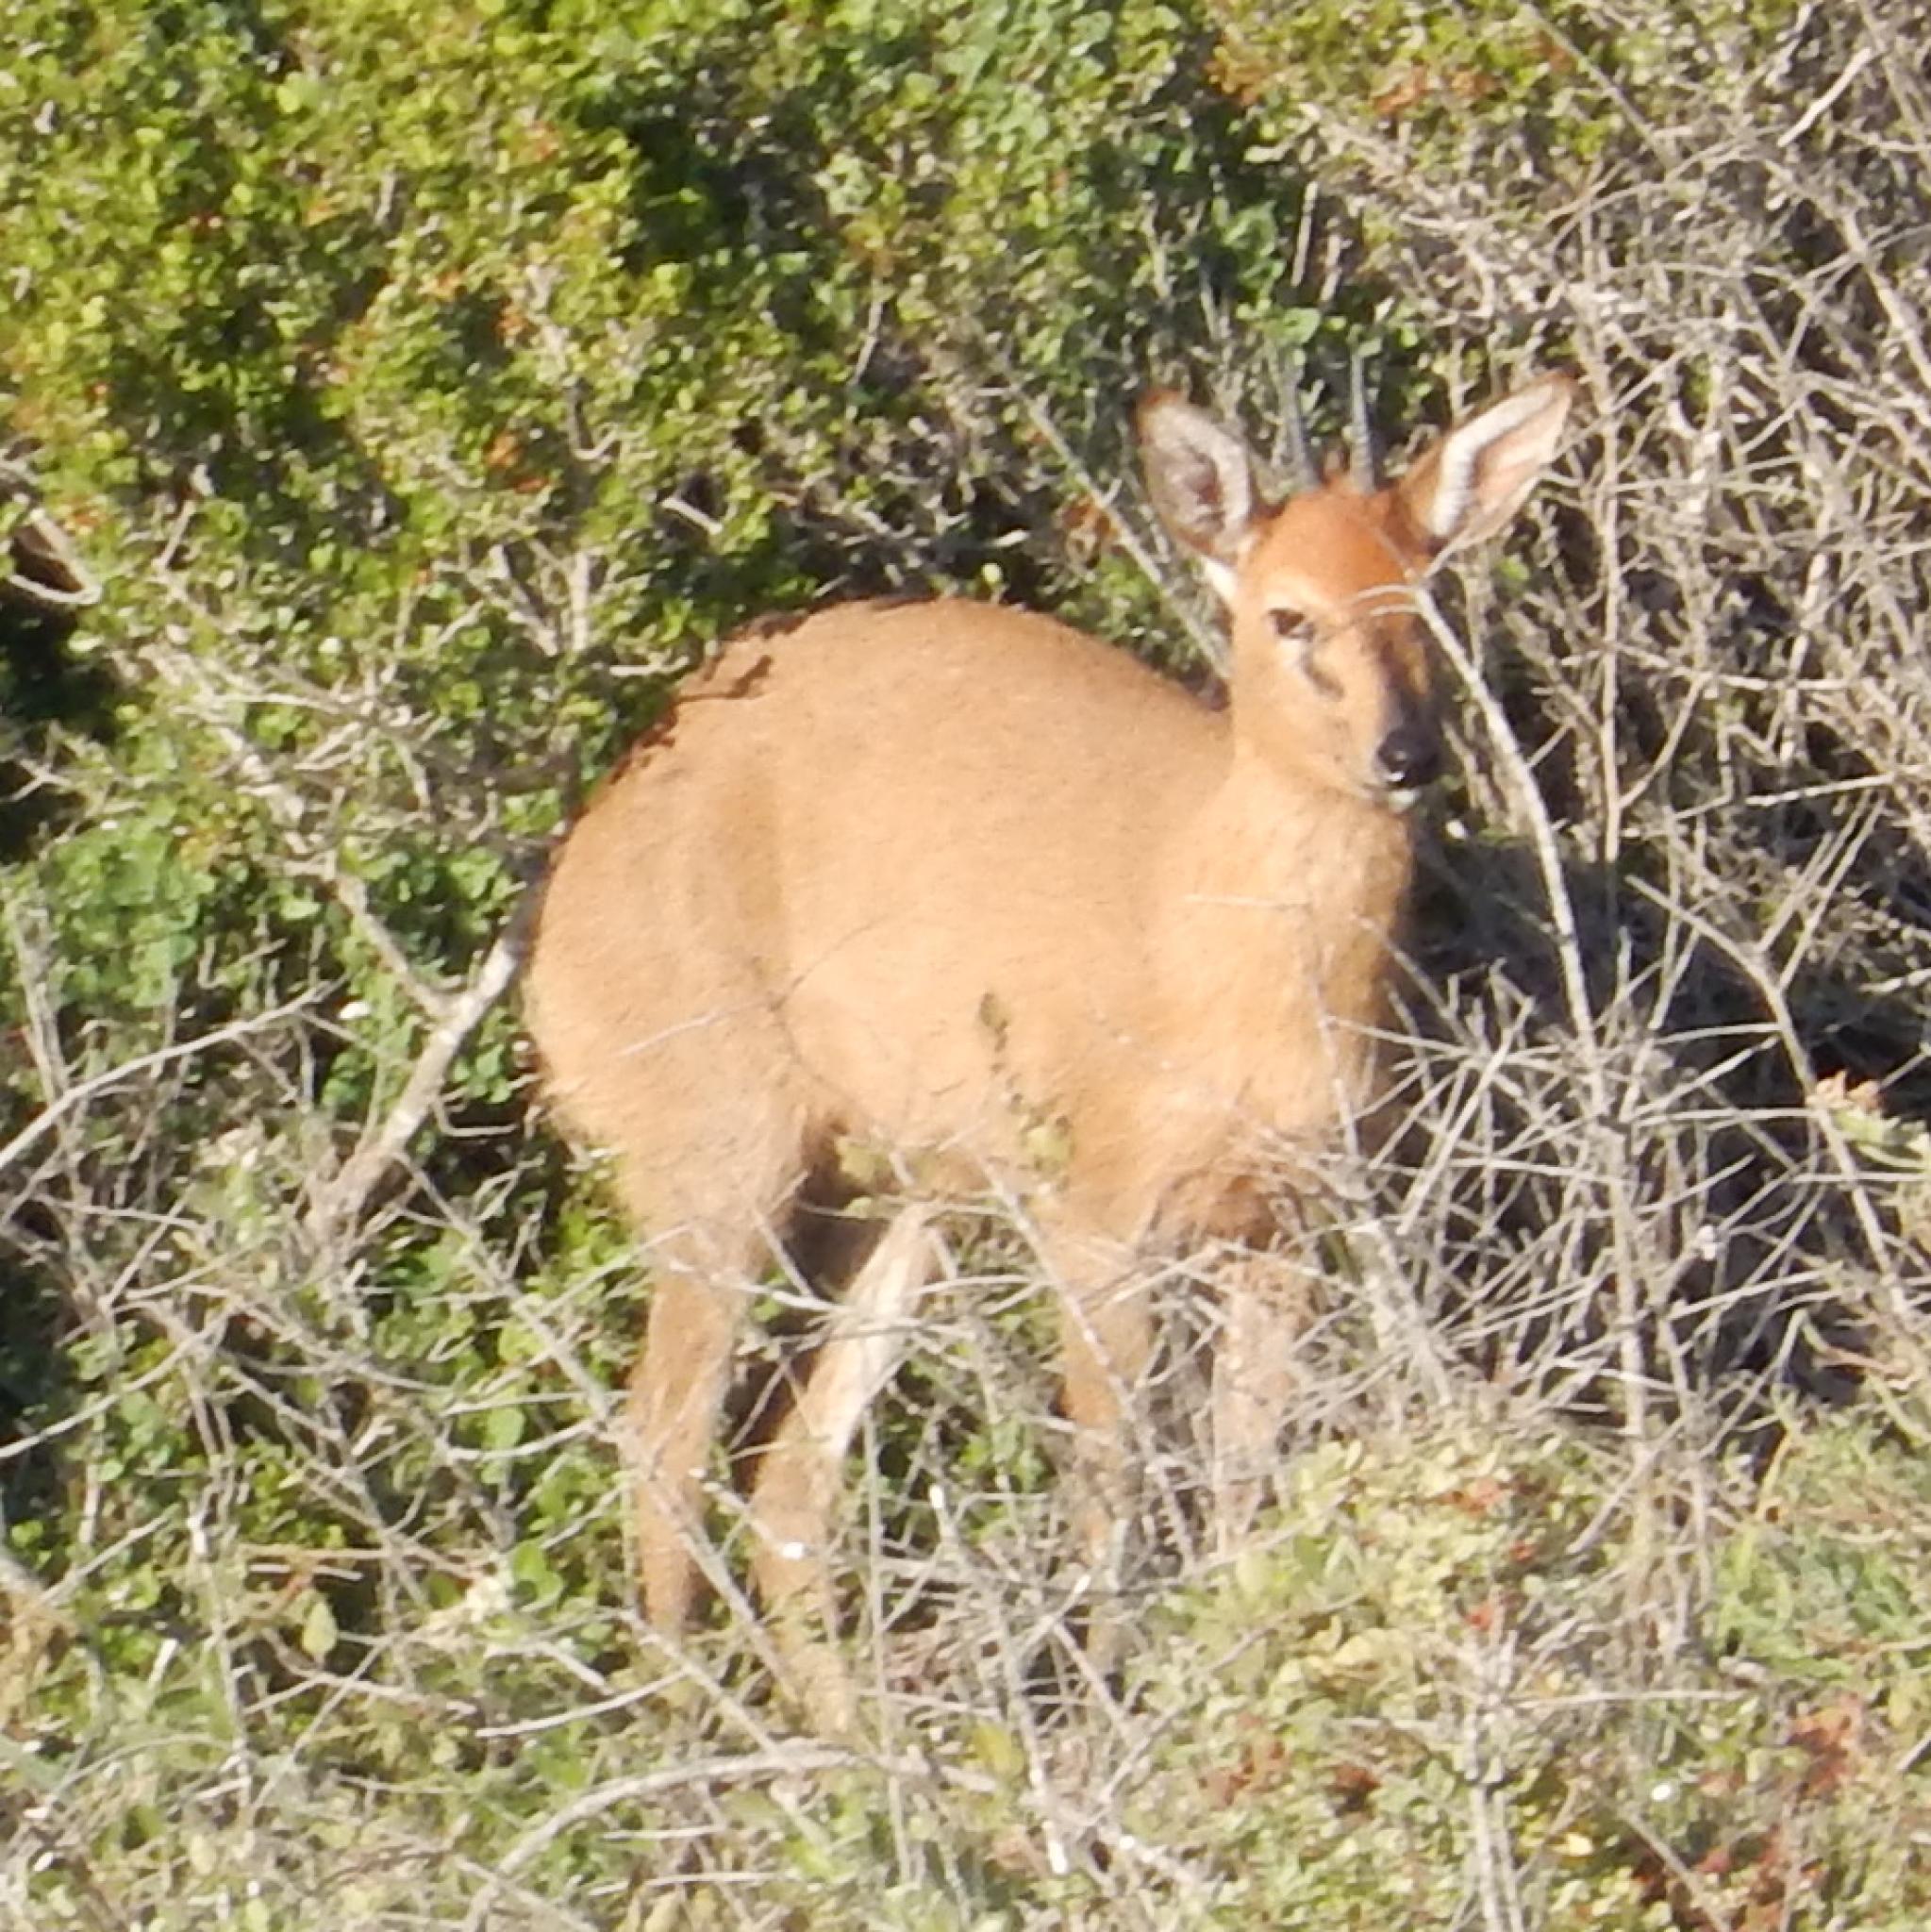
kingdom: Animalia
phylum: Chordata
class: Mammalia
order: Artiodactyla
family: Bovidae
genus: Sylvicapra
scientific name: Sylvicapra grimmia
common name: Bush duiker
